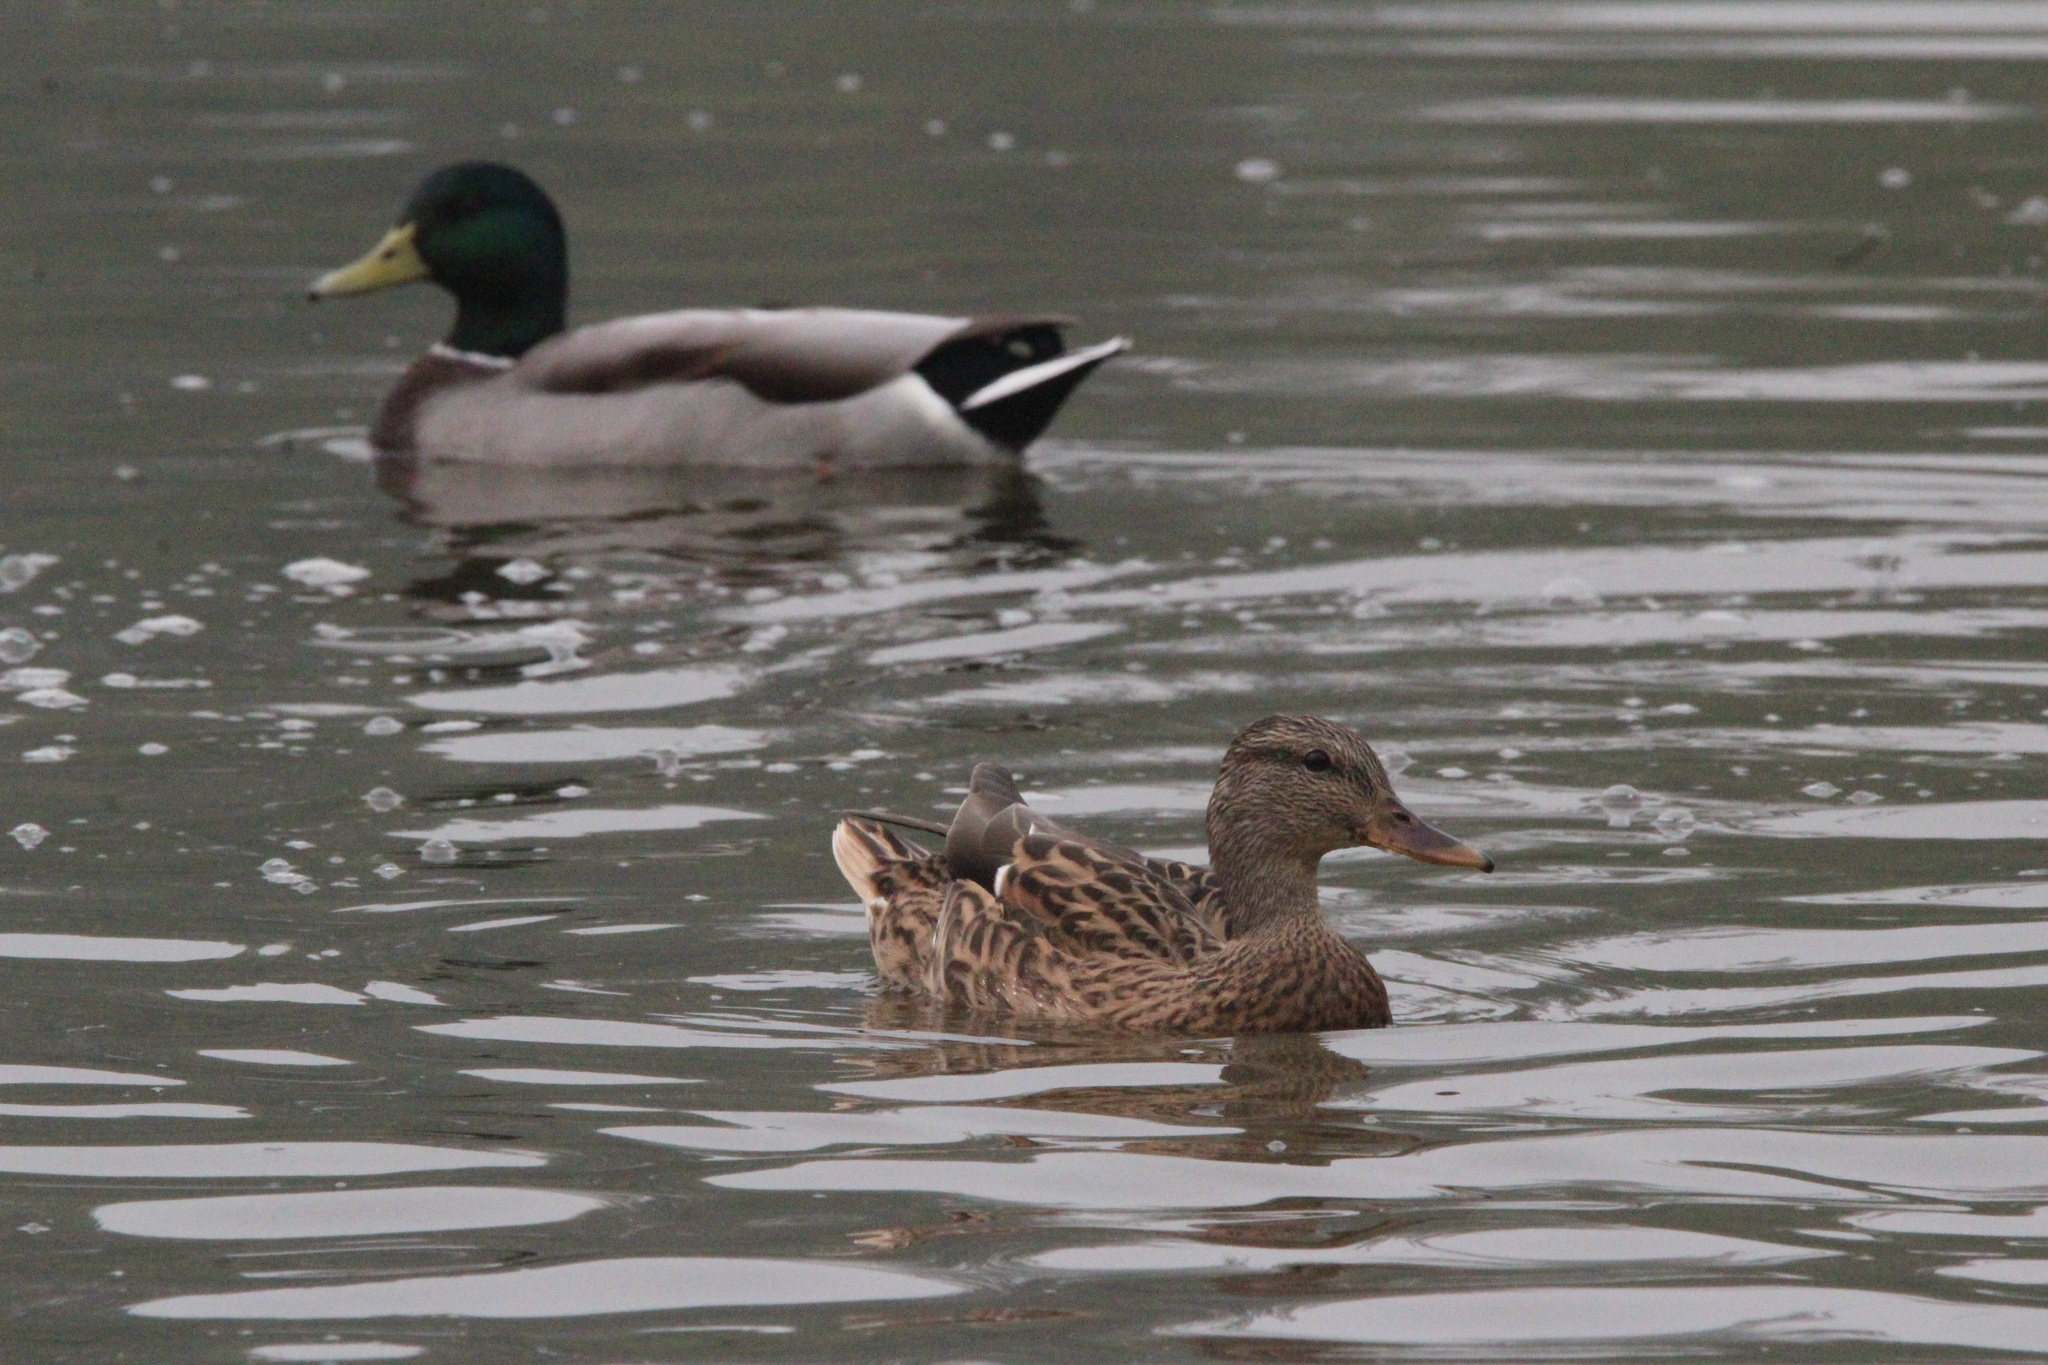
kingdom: Animalia
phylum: Chordata
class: Aves
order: Anseriformes
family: Anatidae
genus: Anas
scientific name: Anas platyrhynchos
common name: Mallard
